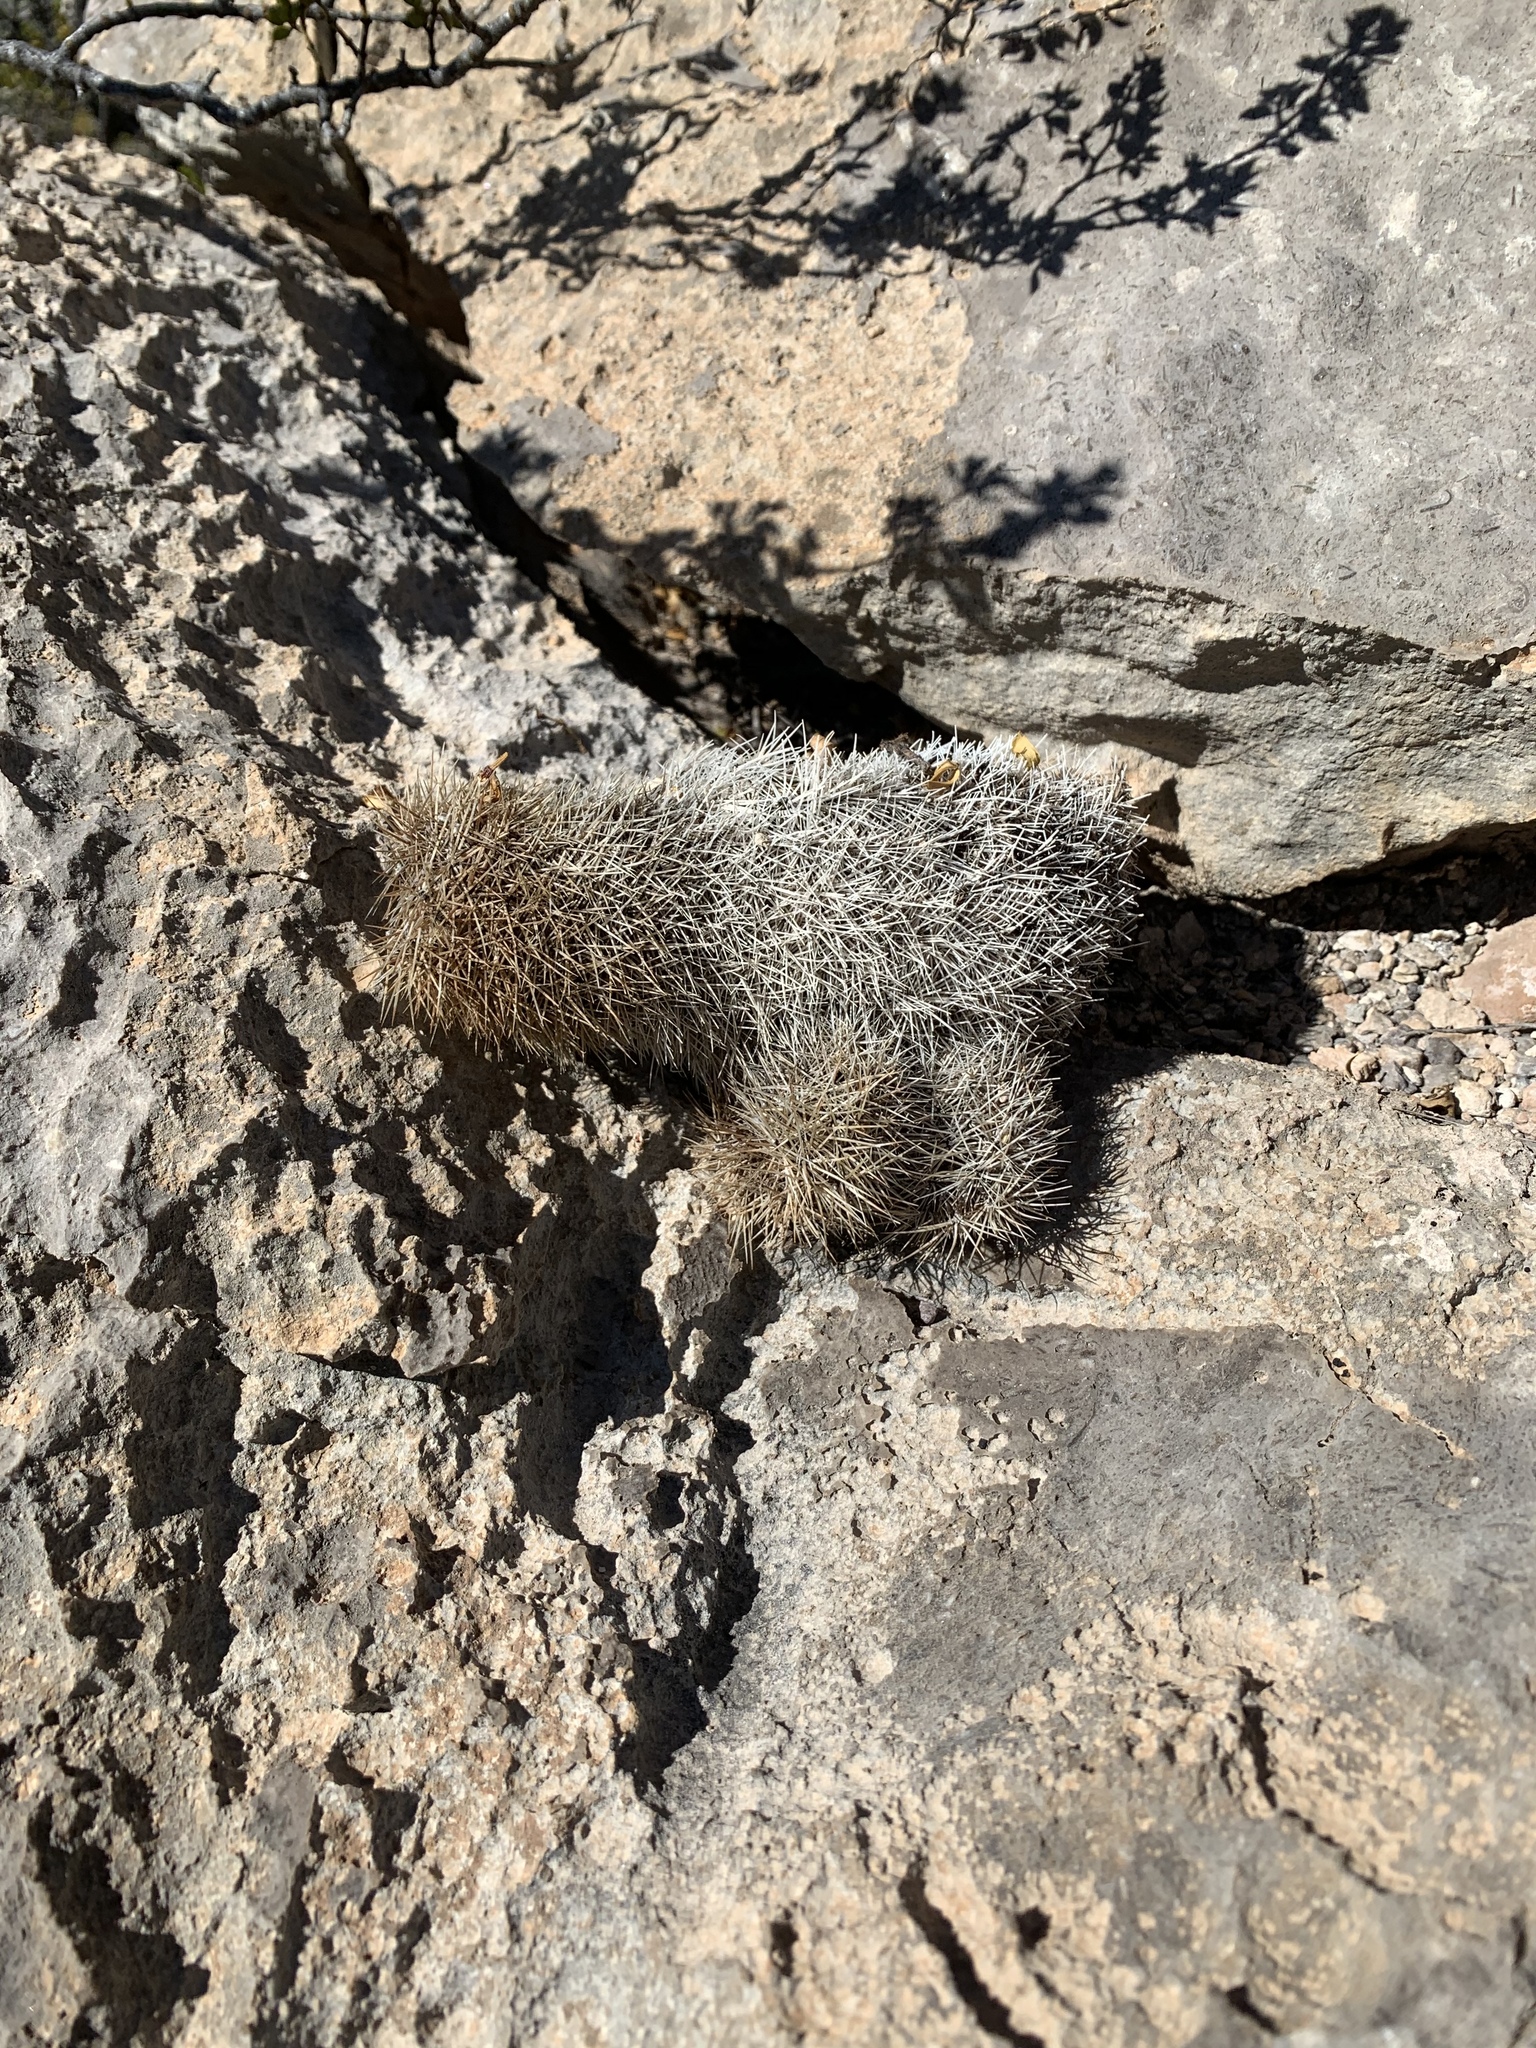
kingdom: Plantae
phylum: Tracheophyta
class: Magnoliopsida
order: Caryophyllales
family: Cactaceae
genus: Echinocereus
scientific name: Echinocereus dasyacanthus
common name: Spiny hedgehog cactus
